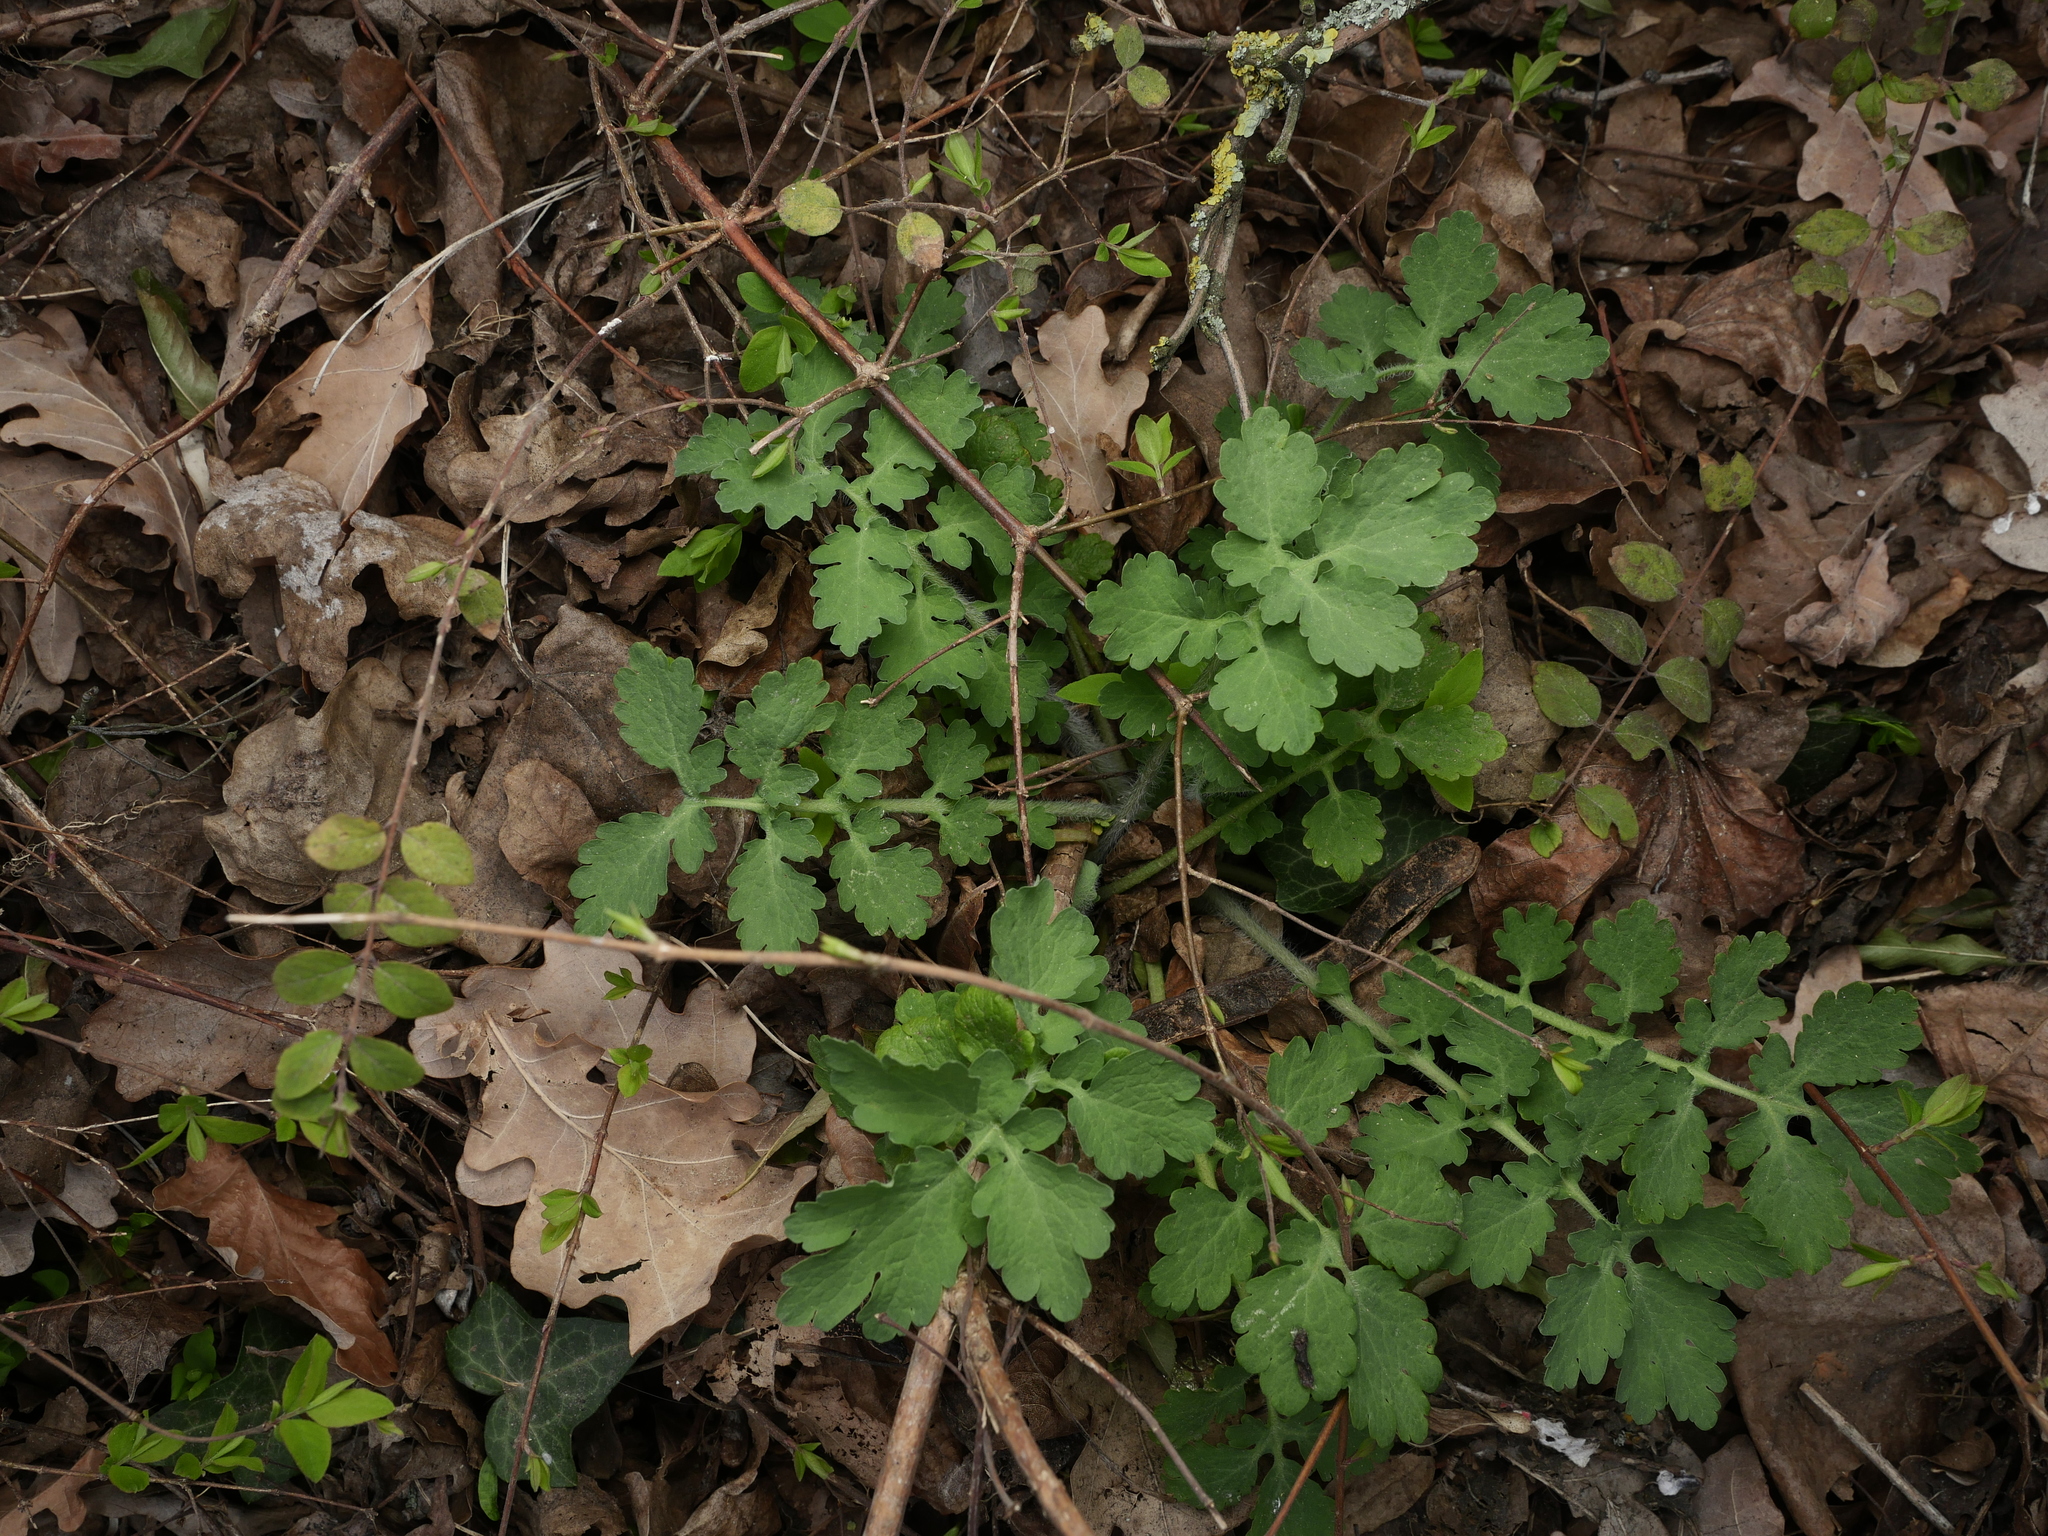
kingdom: Plantae
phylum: Tracheophyta
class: Magnoliopsida
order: Ranunculales
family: Papaveraceae
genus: Chelidonium
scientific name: Chelidonium majus
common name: Greater celandine
